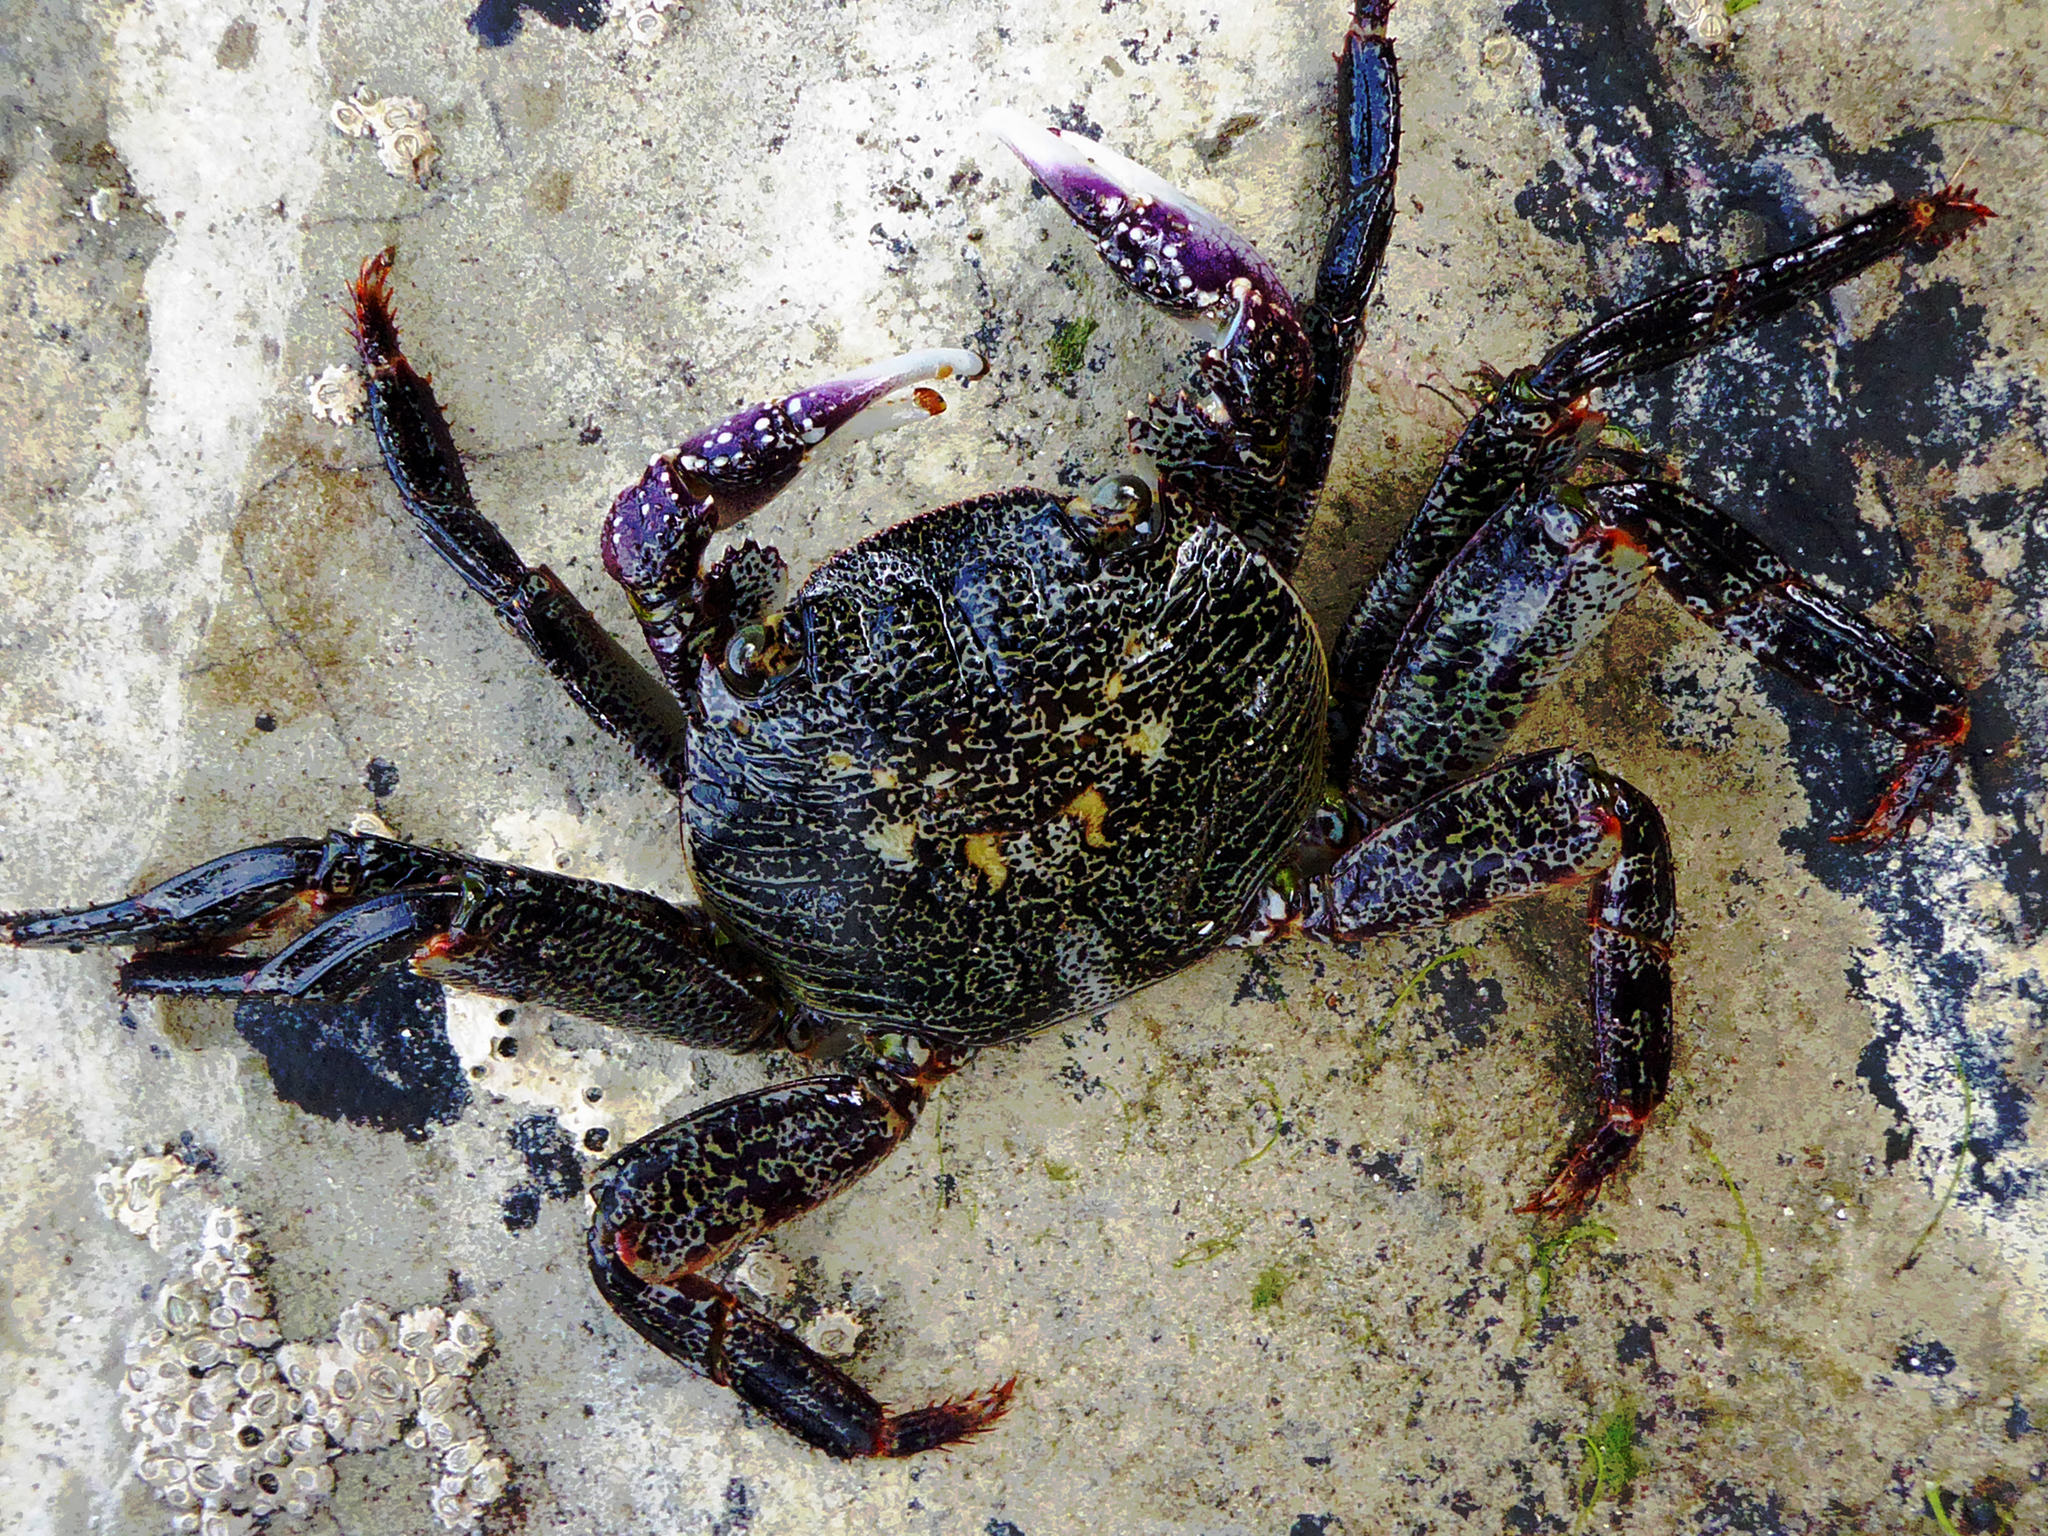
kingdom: Animalia
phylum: Arthropoda
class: Malacostraca
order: Decapoda
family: Grapsidae
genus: Leptograpsus
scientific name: Leptograpsus variegatus
